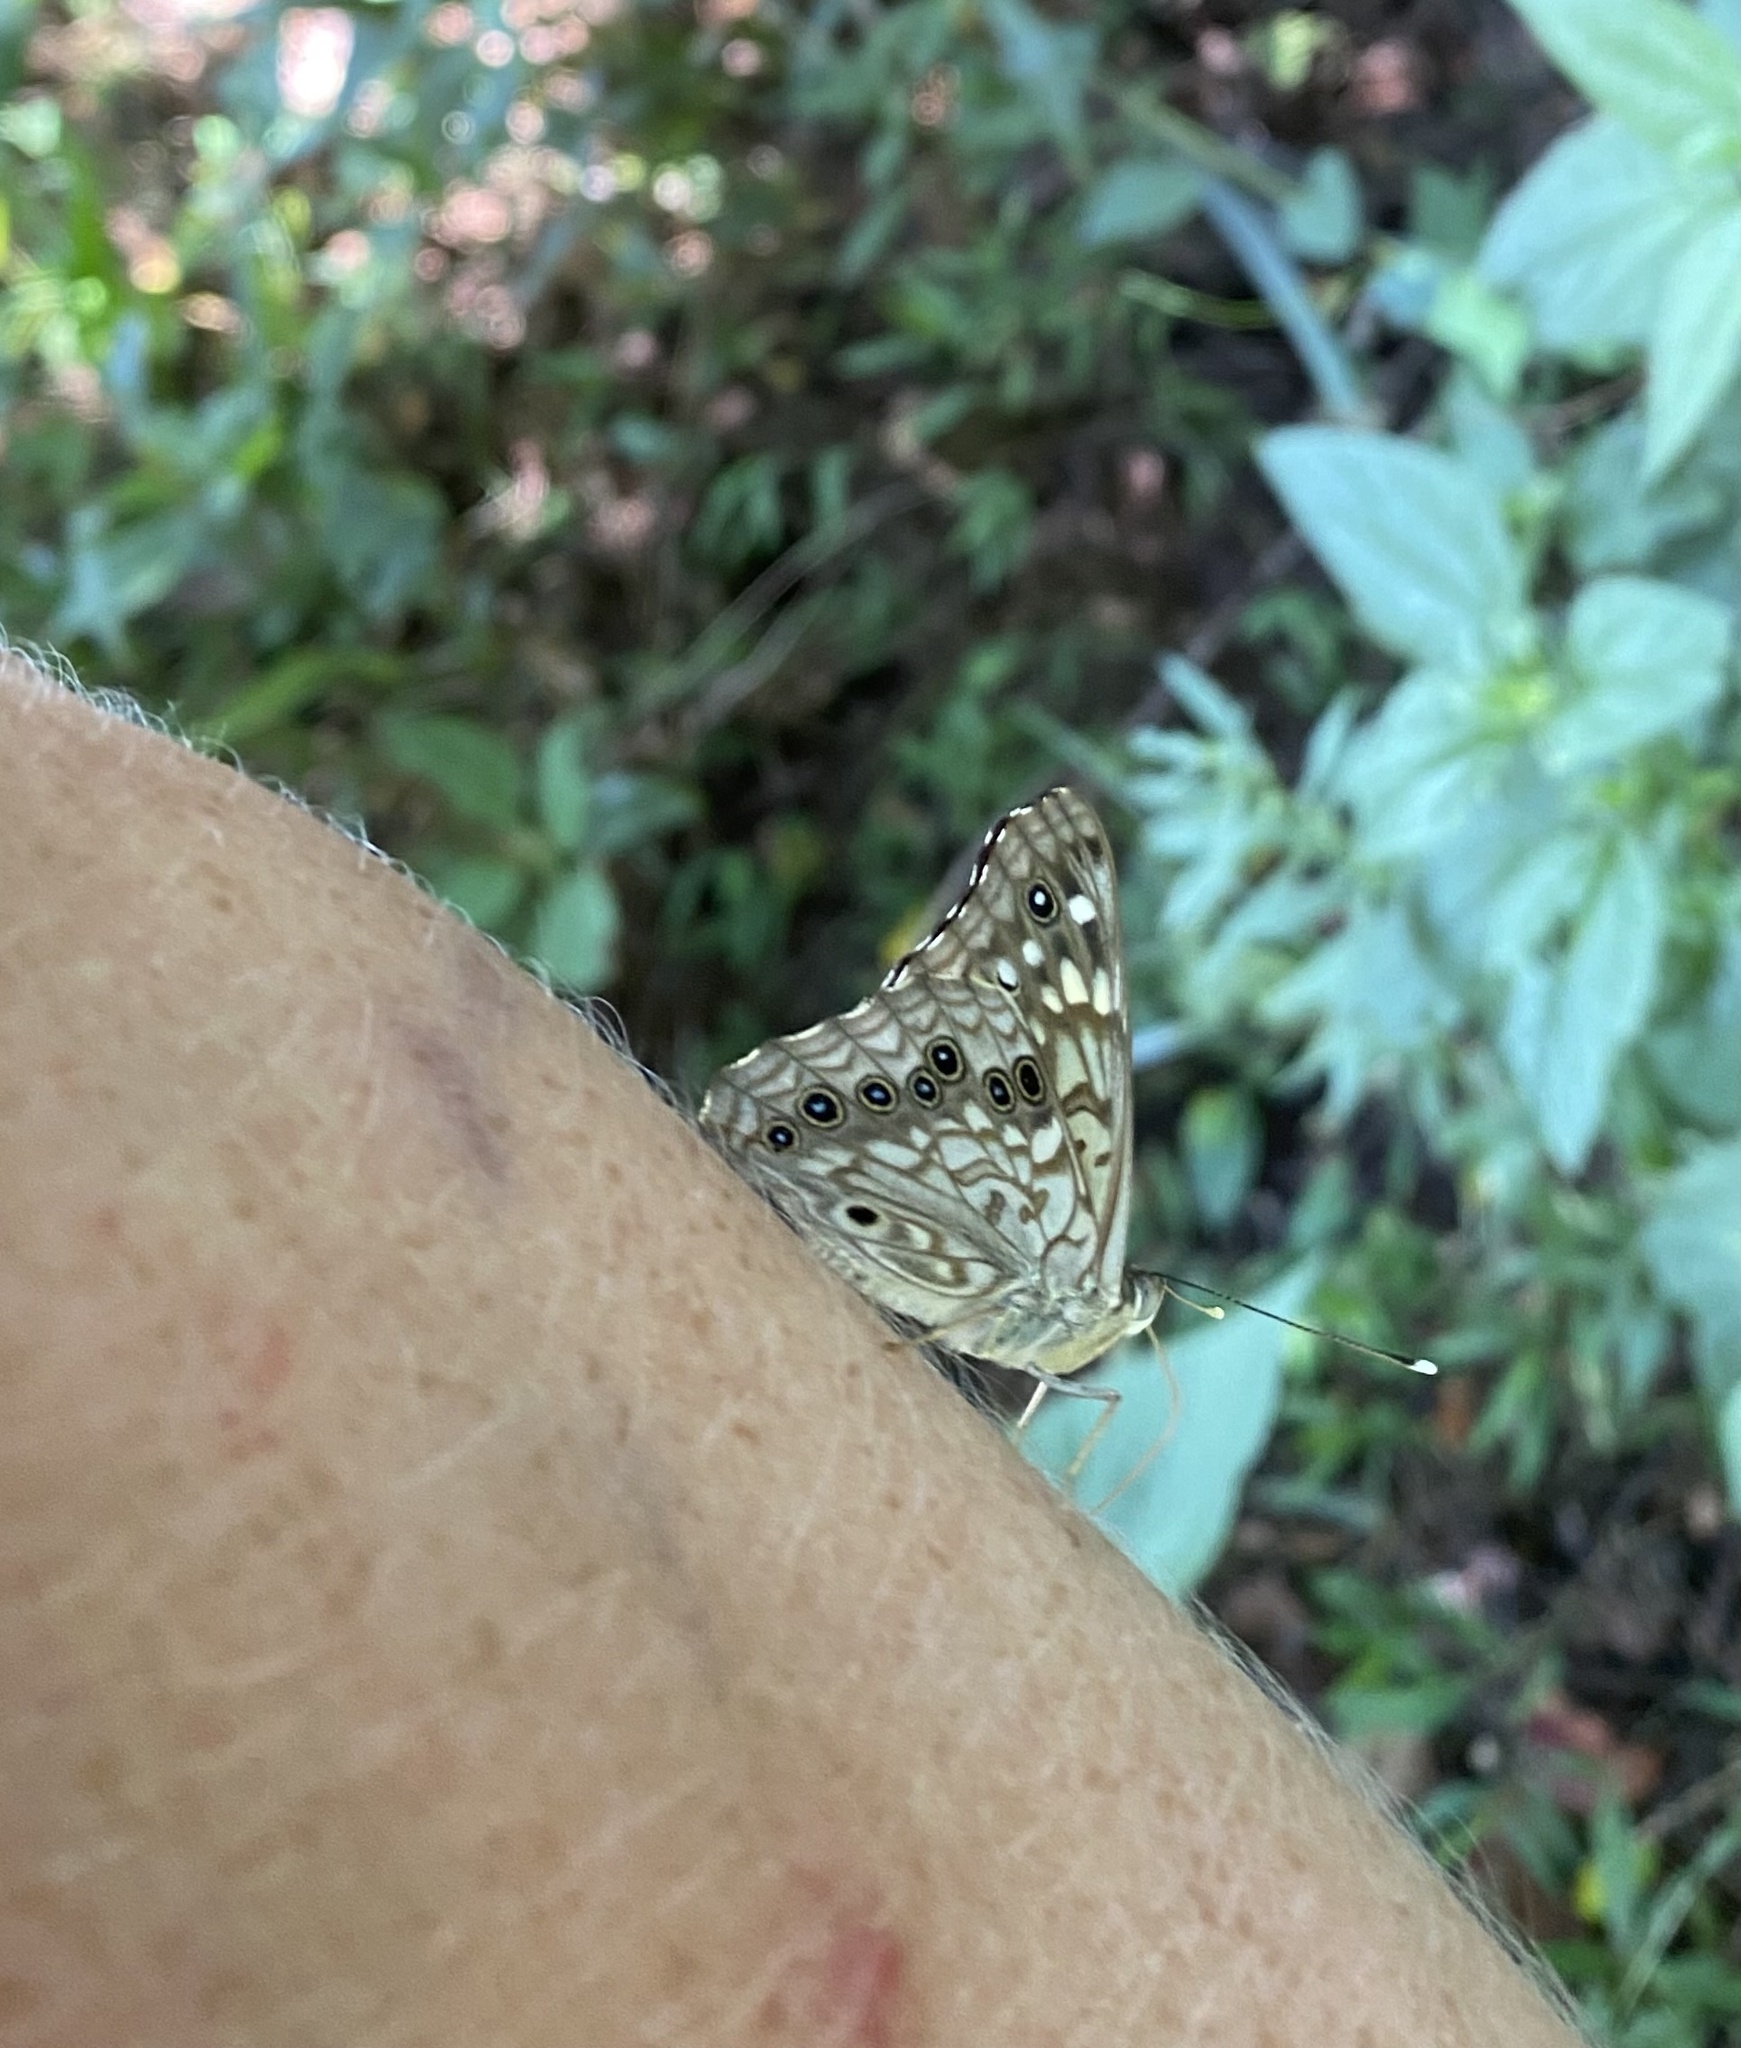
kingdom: Animalia
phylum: Arthropoda
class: Insecta
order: Lepidoptera
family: Nymphalidae
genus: Asterocampa
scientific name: Asterocampa celtis
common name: Hackberry emperor
